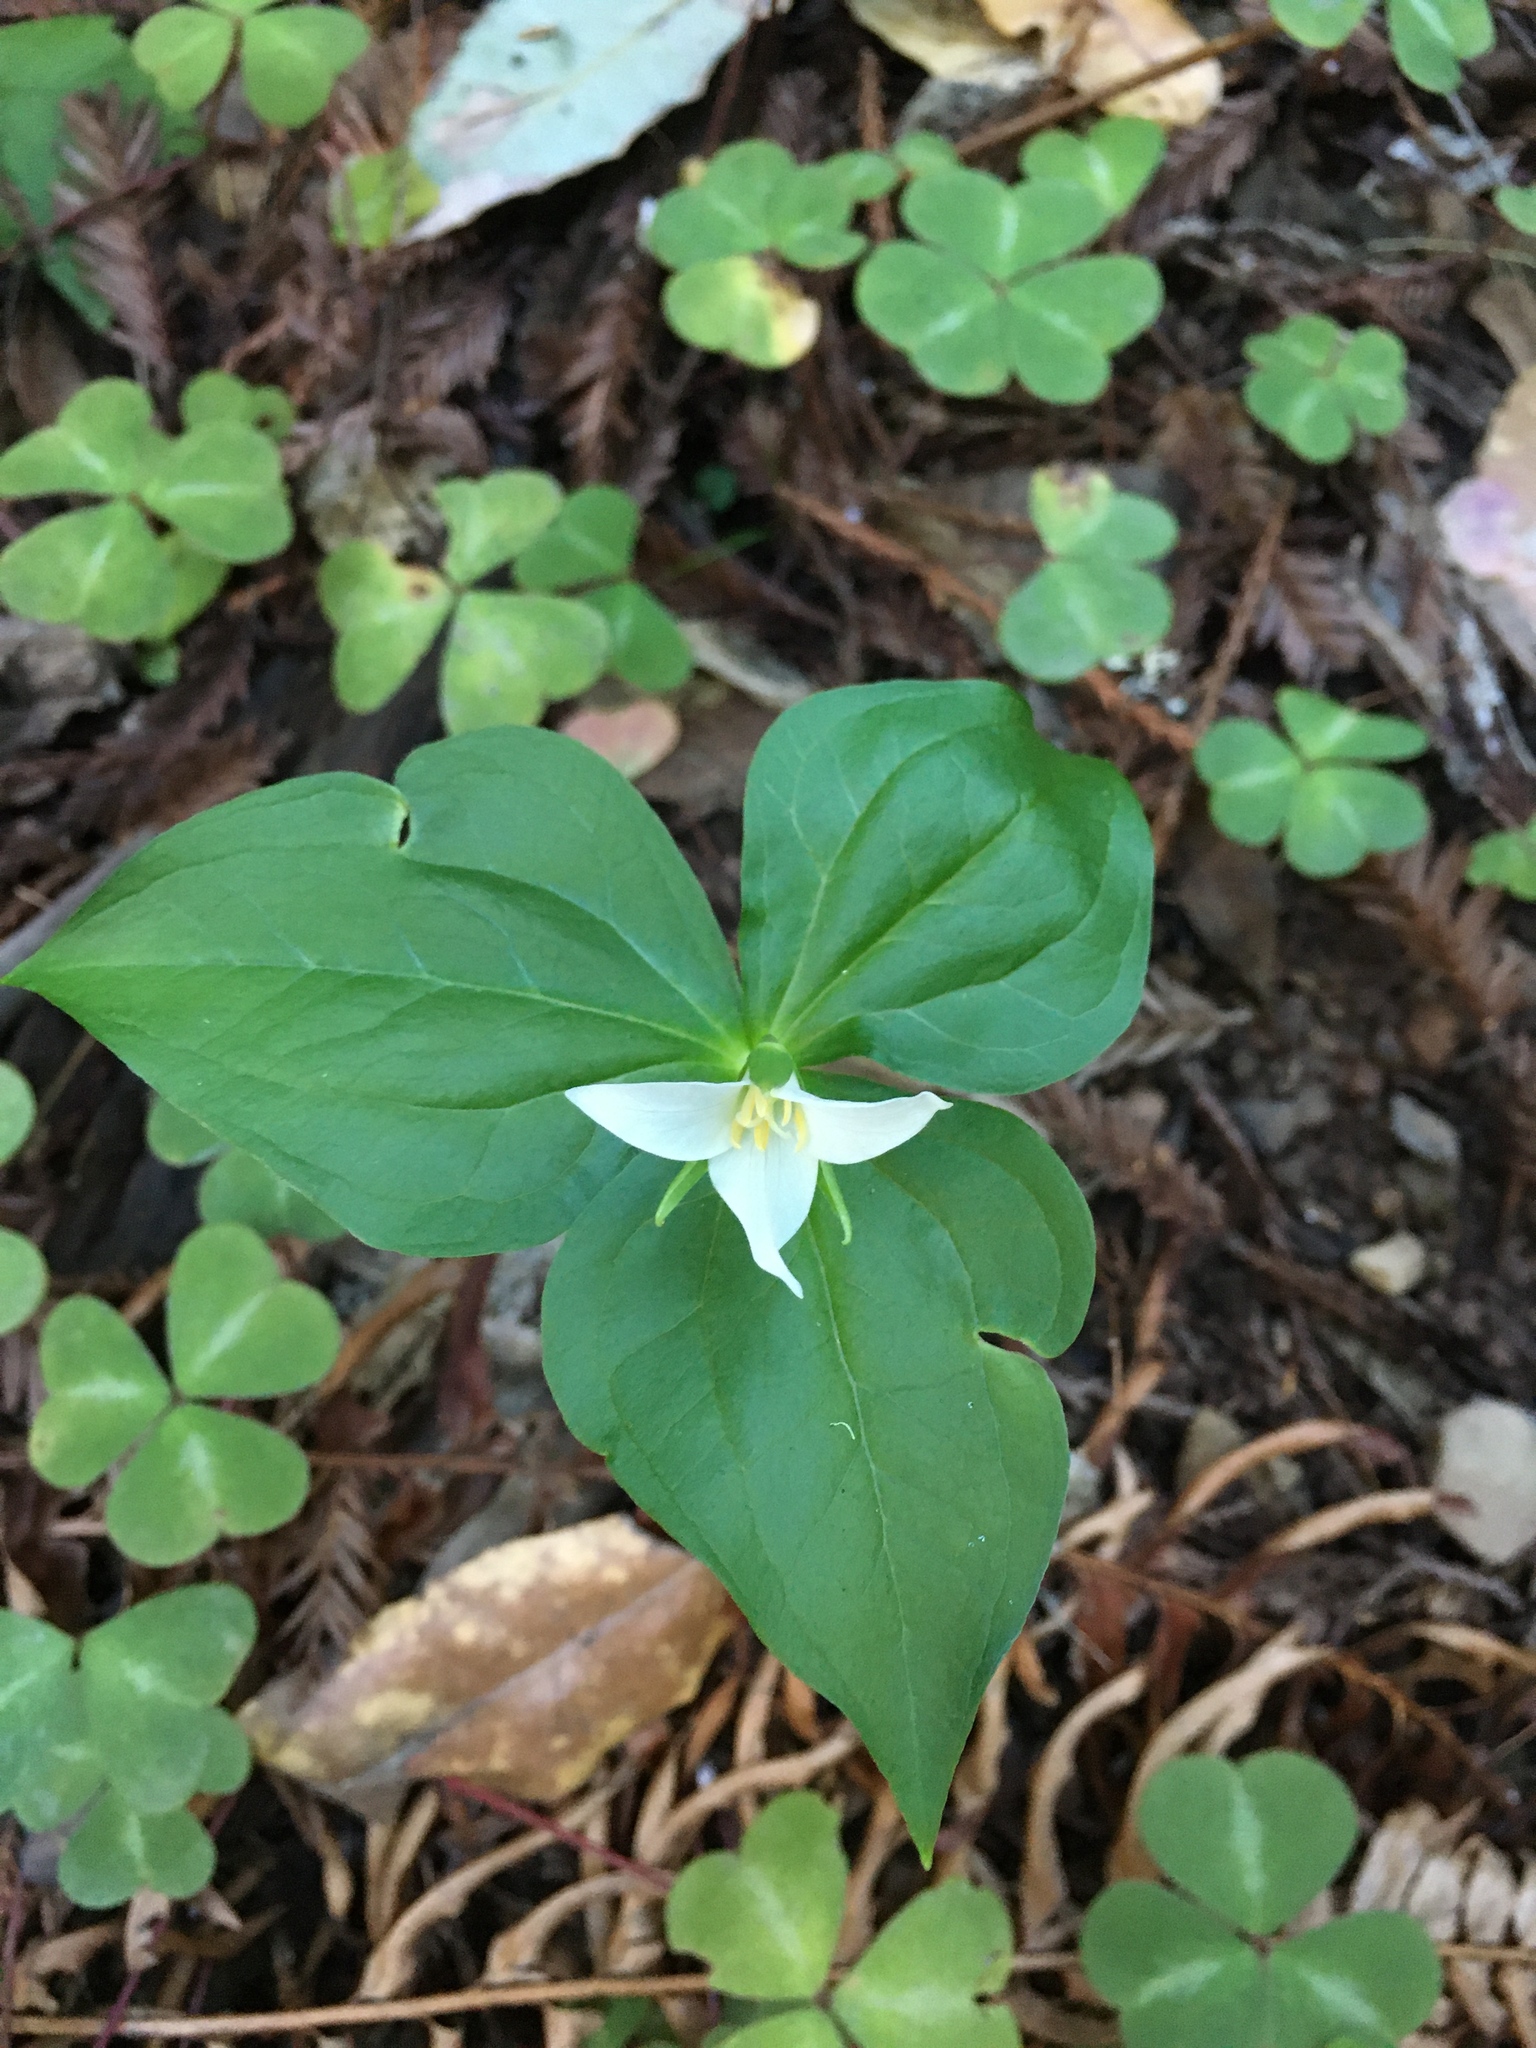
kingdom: Plantae
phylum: Tracheophyta
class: Liliopsida
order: Liliales
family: Melanthiaceae
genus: Trillium
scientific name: Trillium ovatum
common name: Pacific trillium
